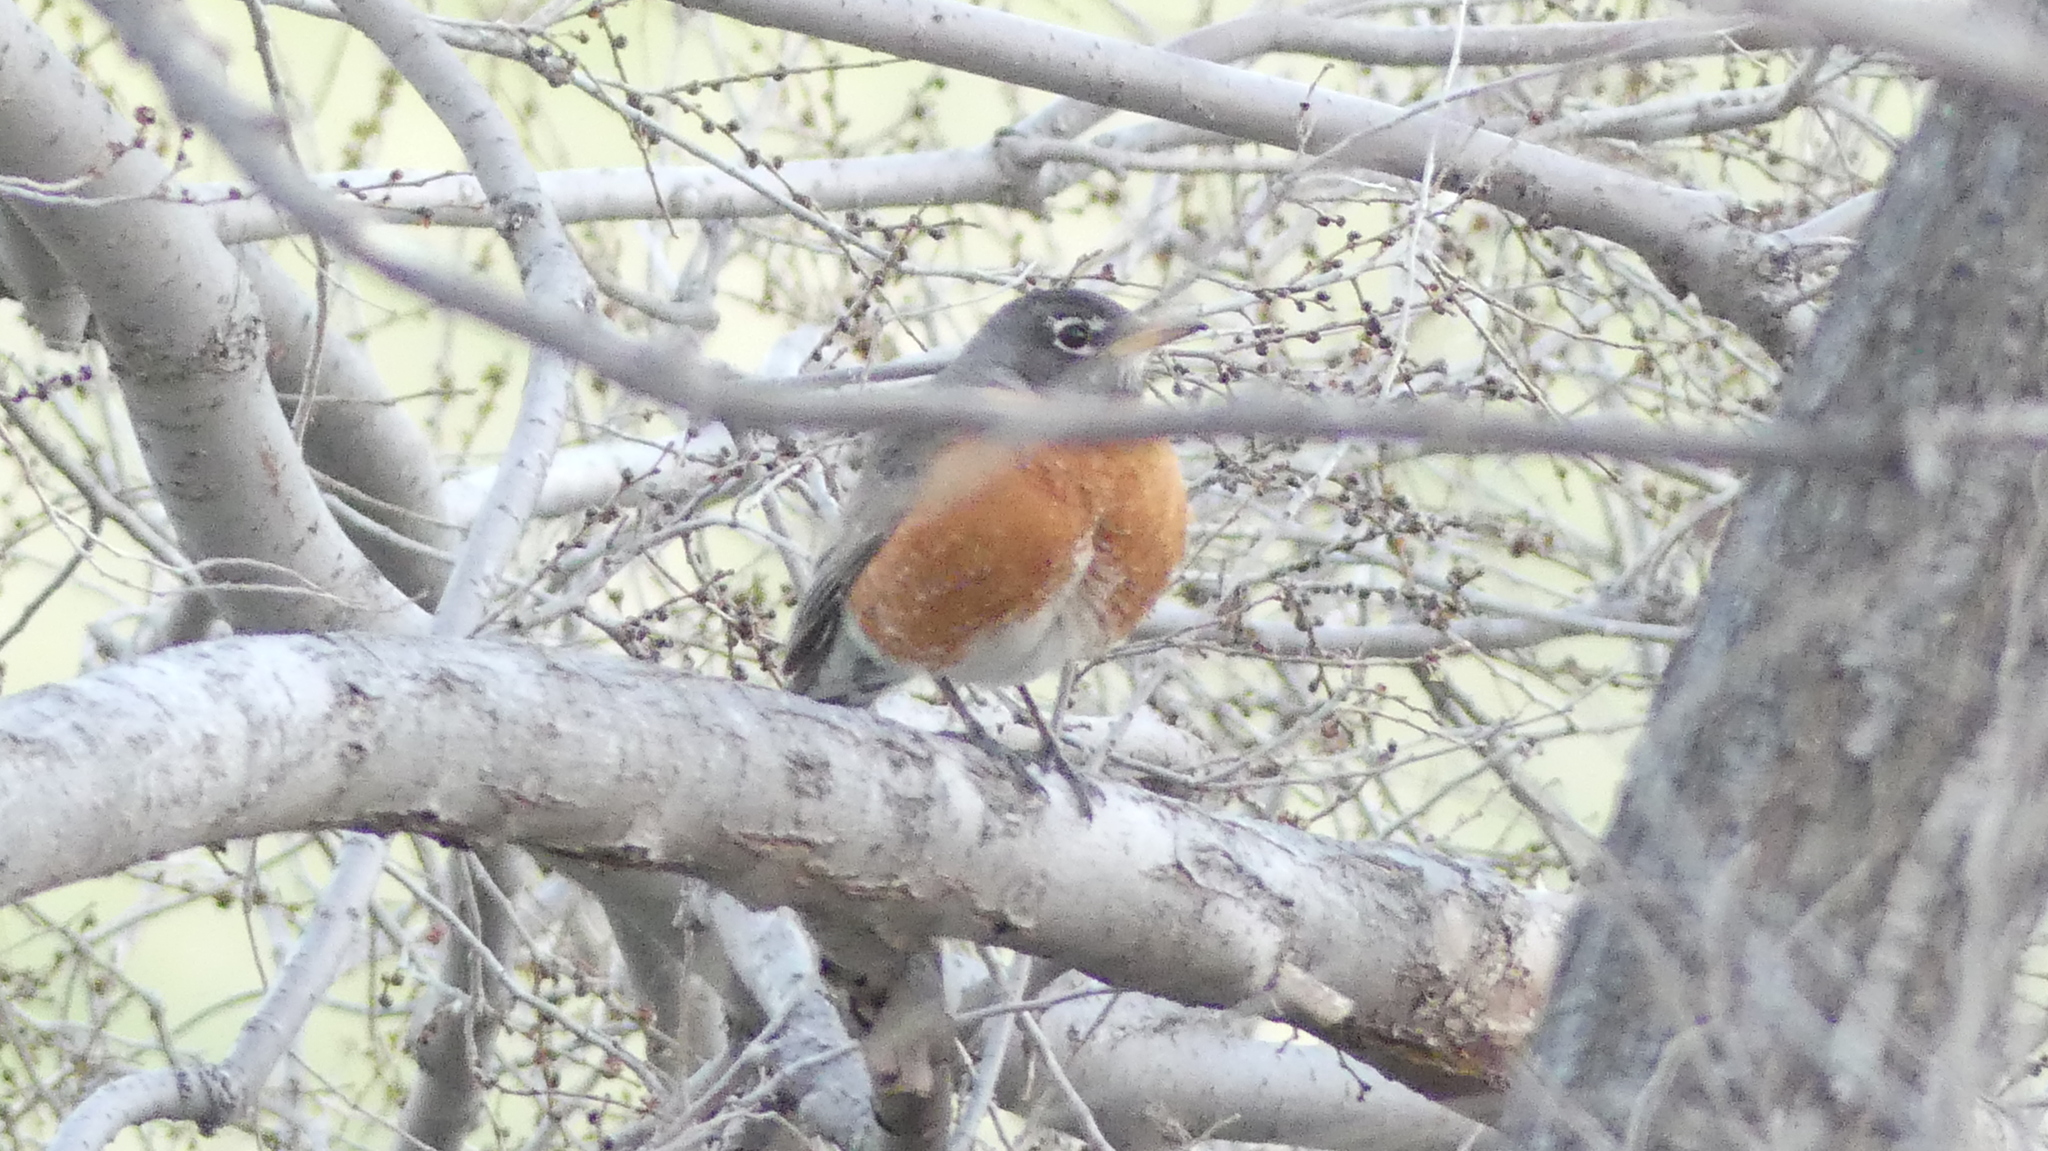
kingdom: Animalia
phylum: Chordata
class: Aves
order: Passeriformes
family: Turdidae
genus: Turdus
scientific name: Turdus migratorius
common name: American robin
